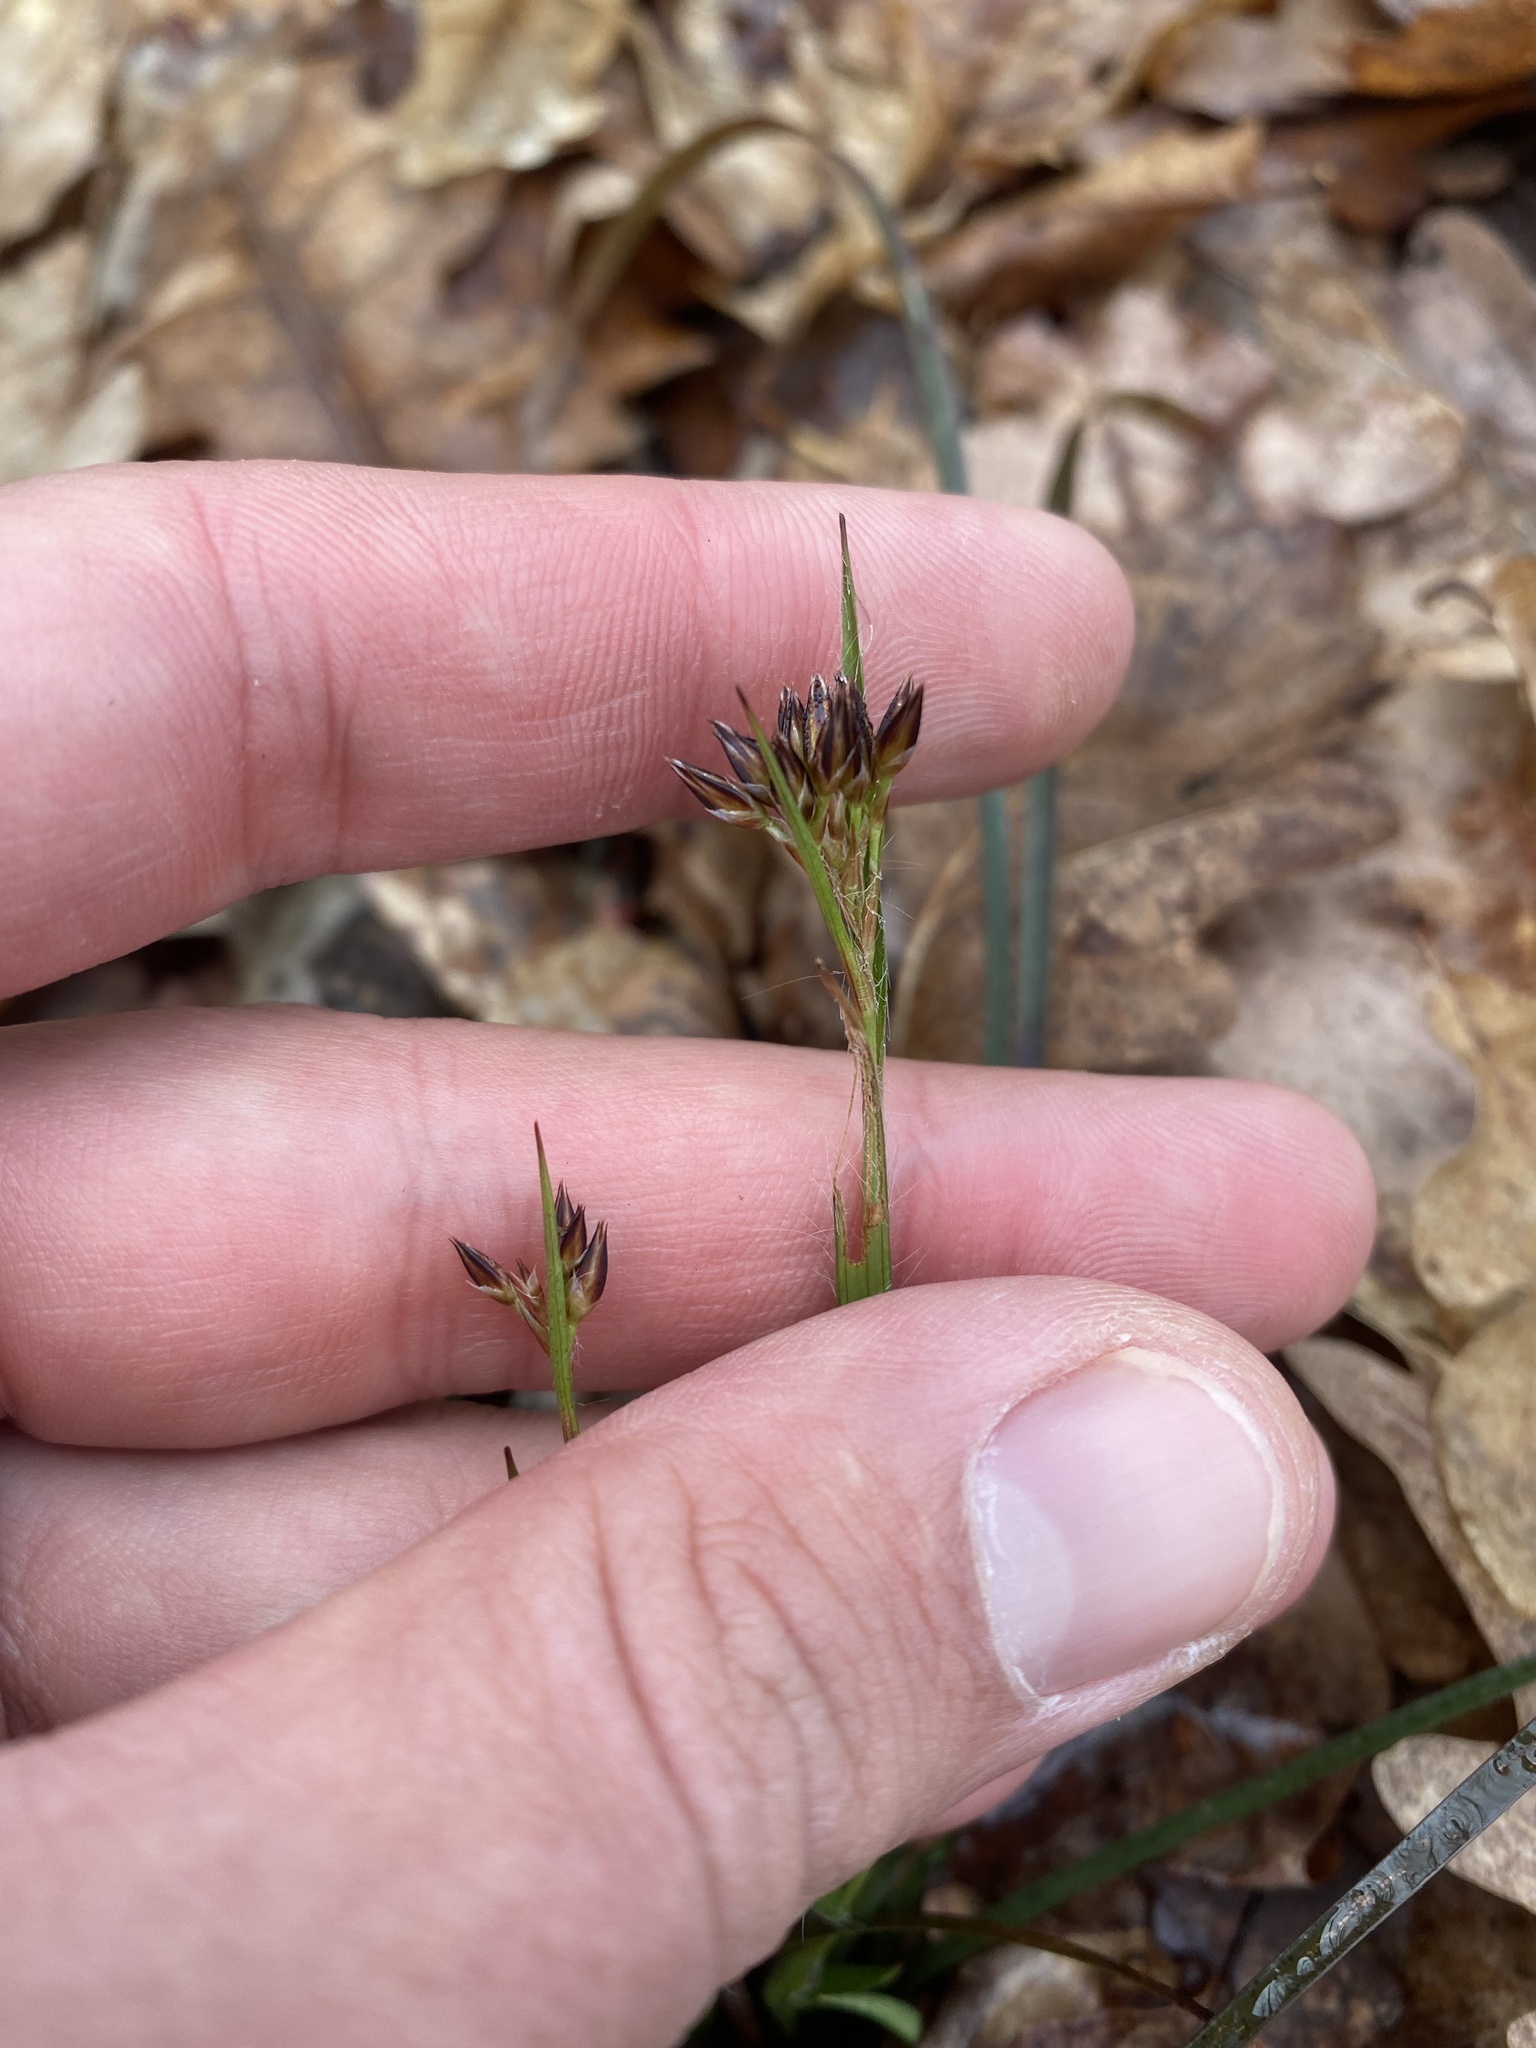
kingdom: Plantae
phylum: Tracheophyta
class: Liliopsida
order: Poales
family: Juncaceae
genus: Luzula
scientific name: Luzula forsteri
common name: Southern wood-rush
